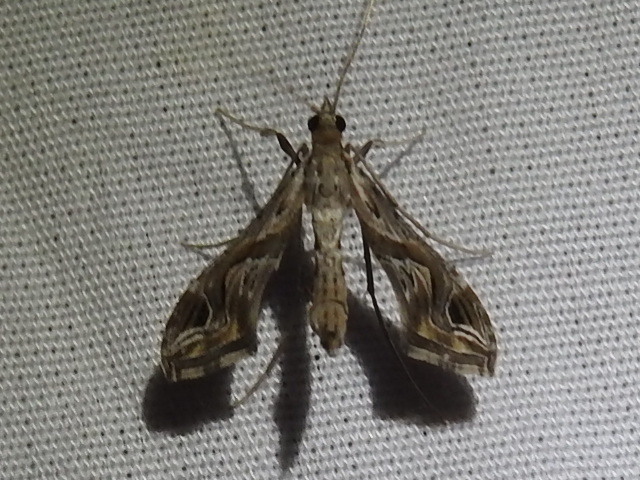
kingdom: Animalia
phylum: Arthropoda
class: Insecta
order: Lepidoptera
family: Crambidae
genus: Lineodes
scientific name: Lineodes integra
